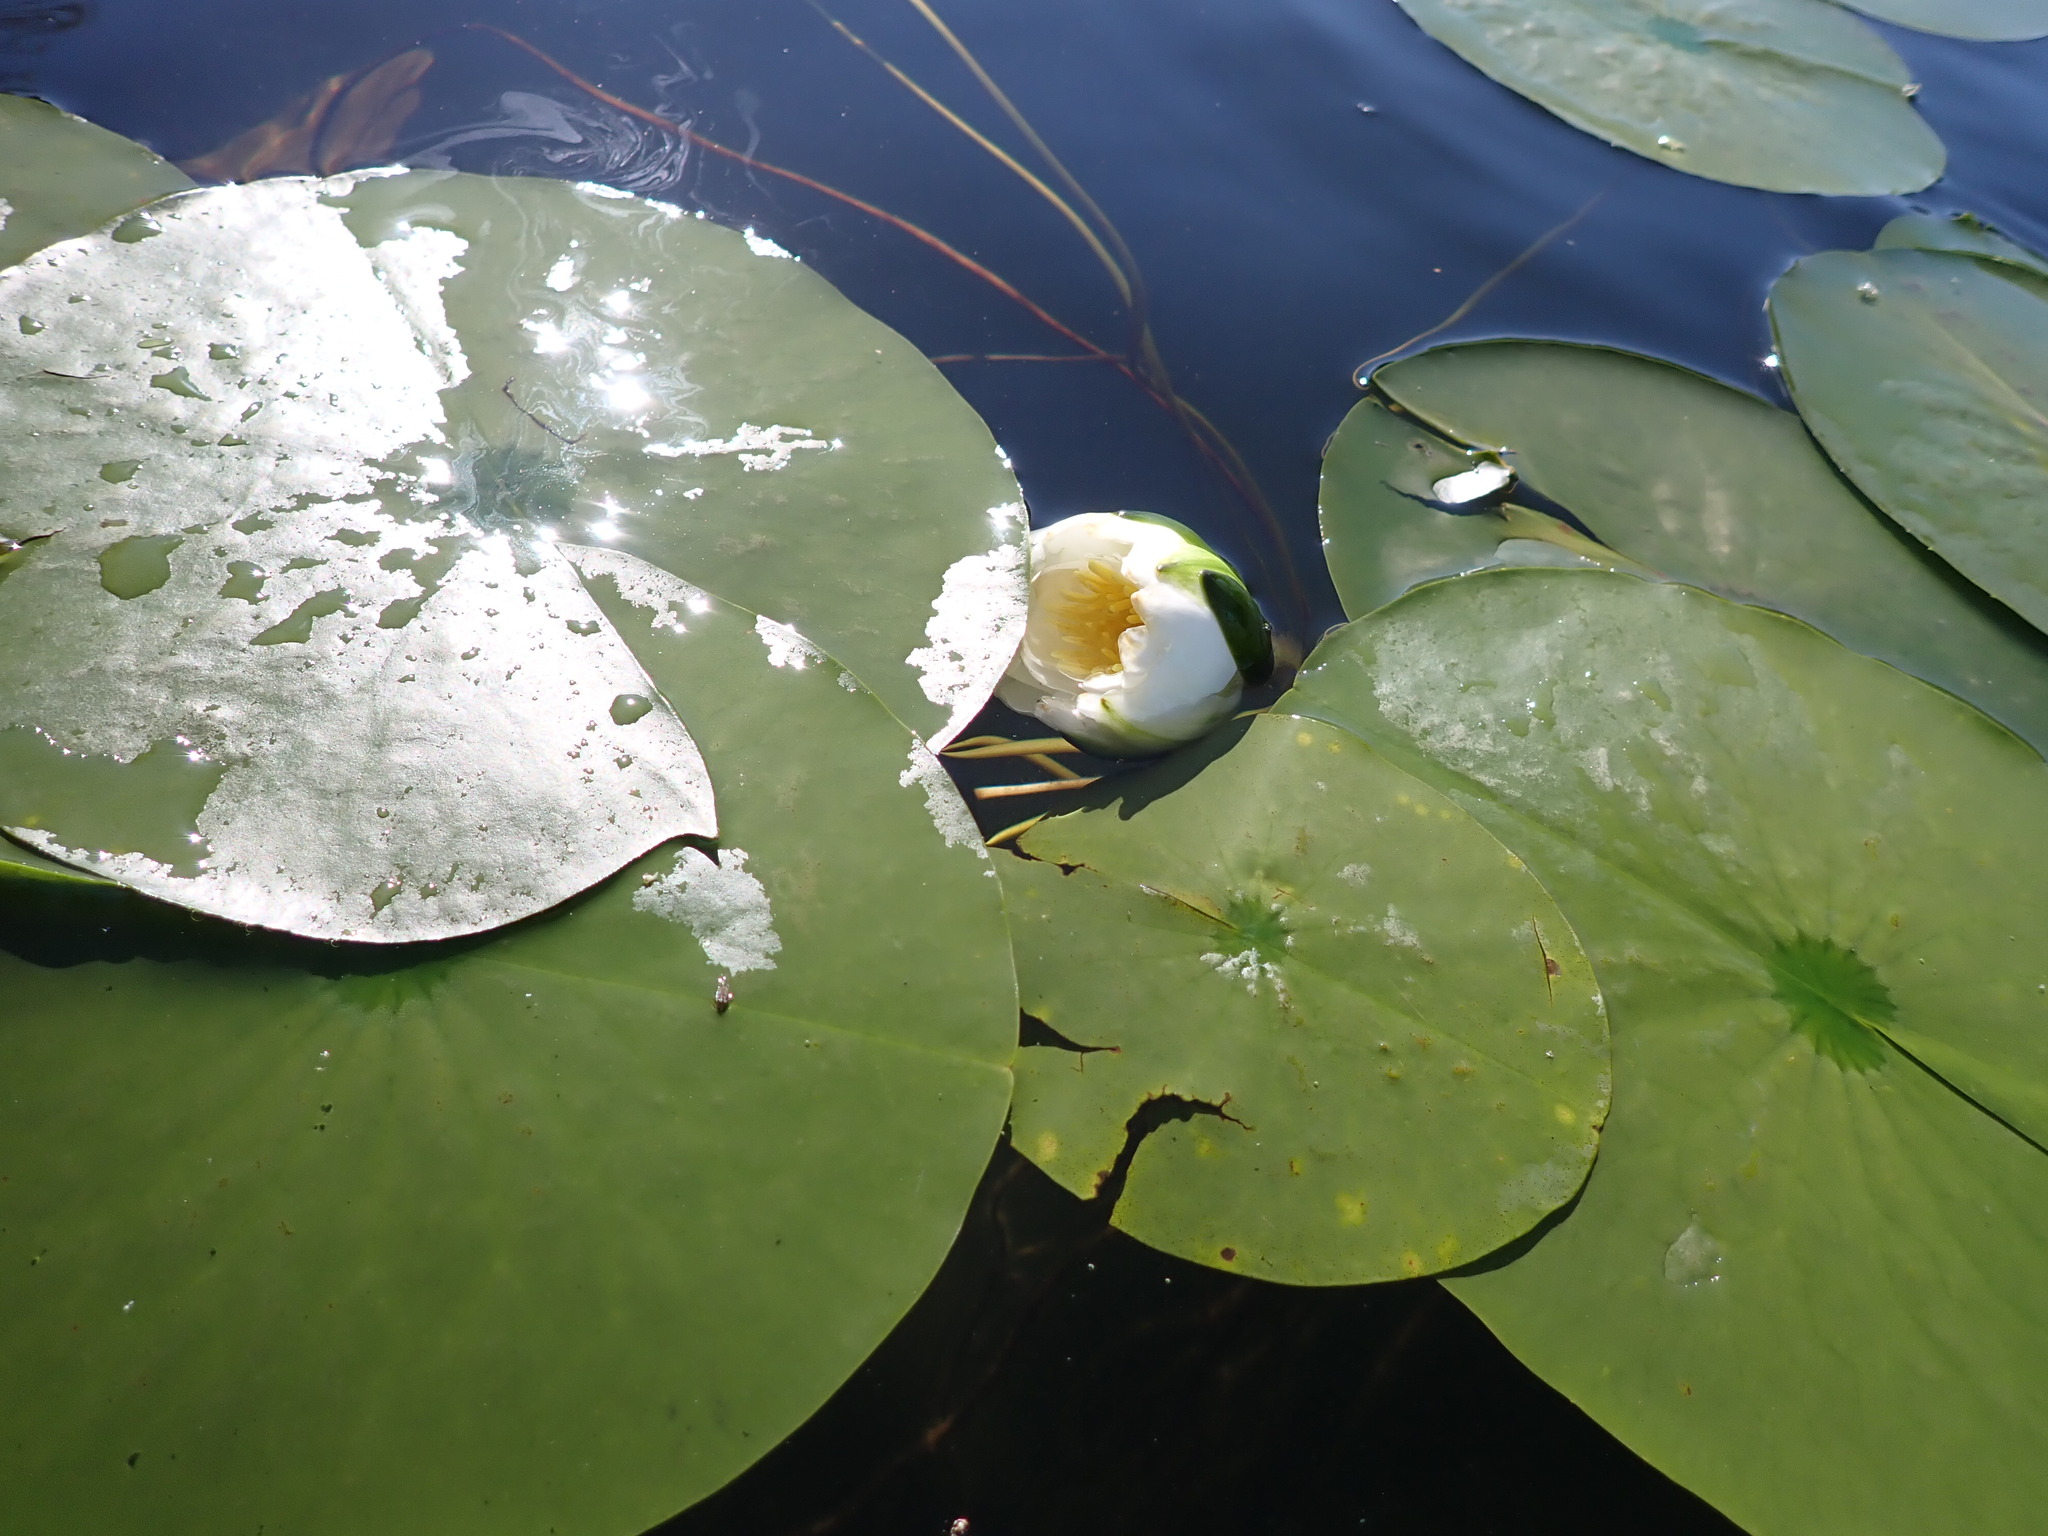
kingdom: Plantae
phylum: Tracheophyta
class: Magnoliopsida
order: Nymphaeales
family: Nymphaeaceae
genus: Nymphaea
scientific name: Nymphaea odorata
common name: Fragrant water-lily
